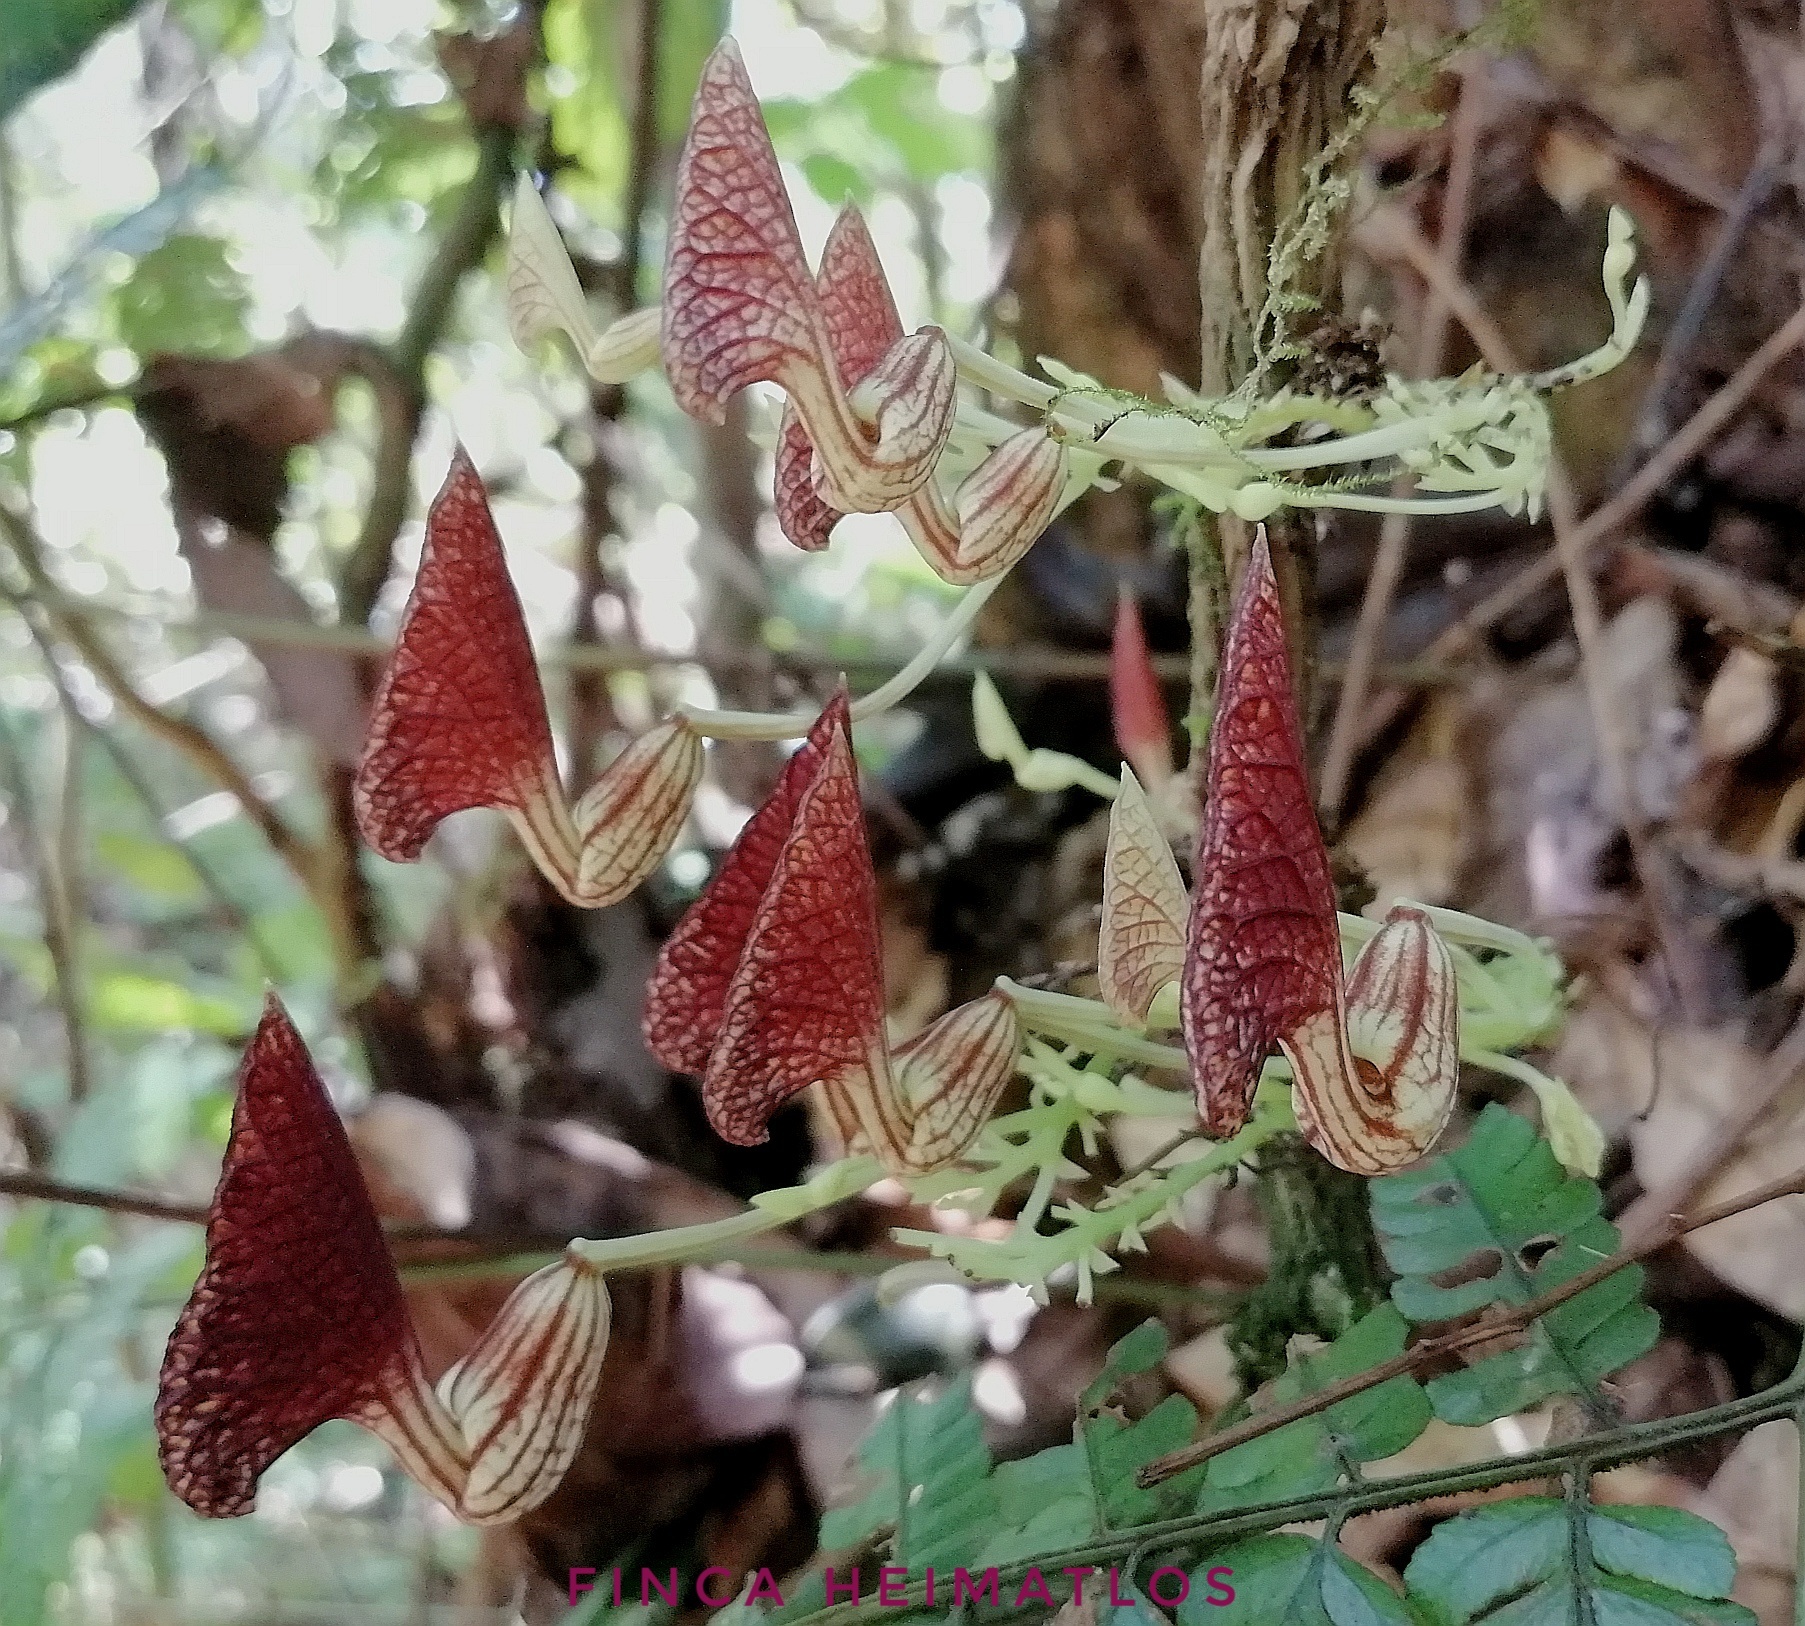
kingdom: Plantae
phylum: Tracheophyta
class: Magnoliopsida
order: Piperales
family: Aristolochiaceae
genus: Aristolochia
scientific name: Aristolochia peruviana
